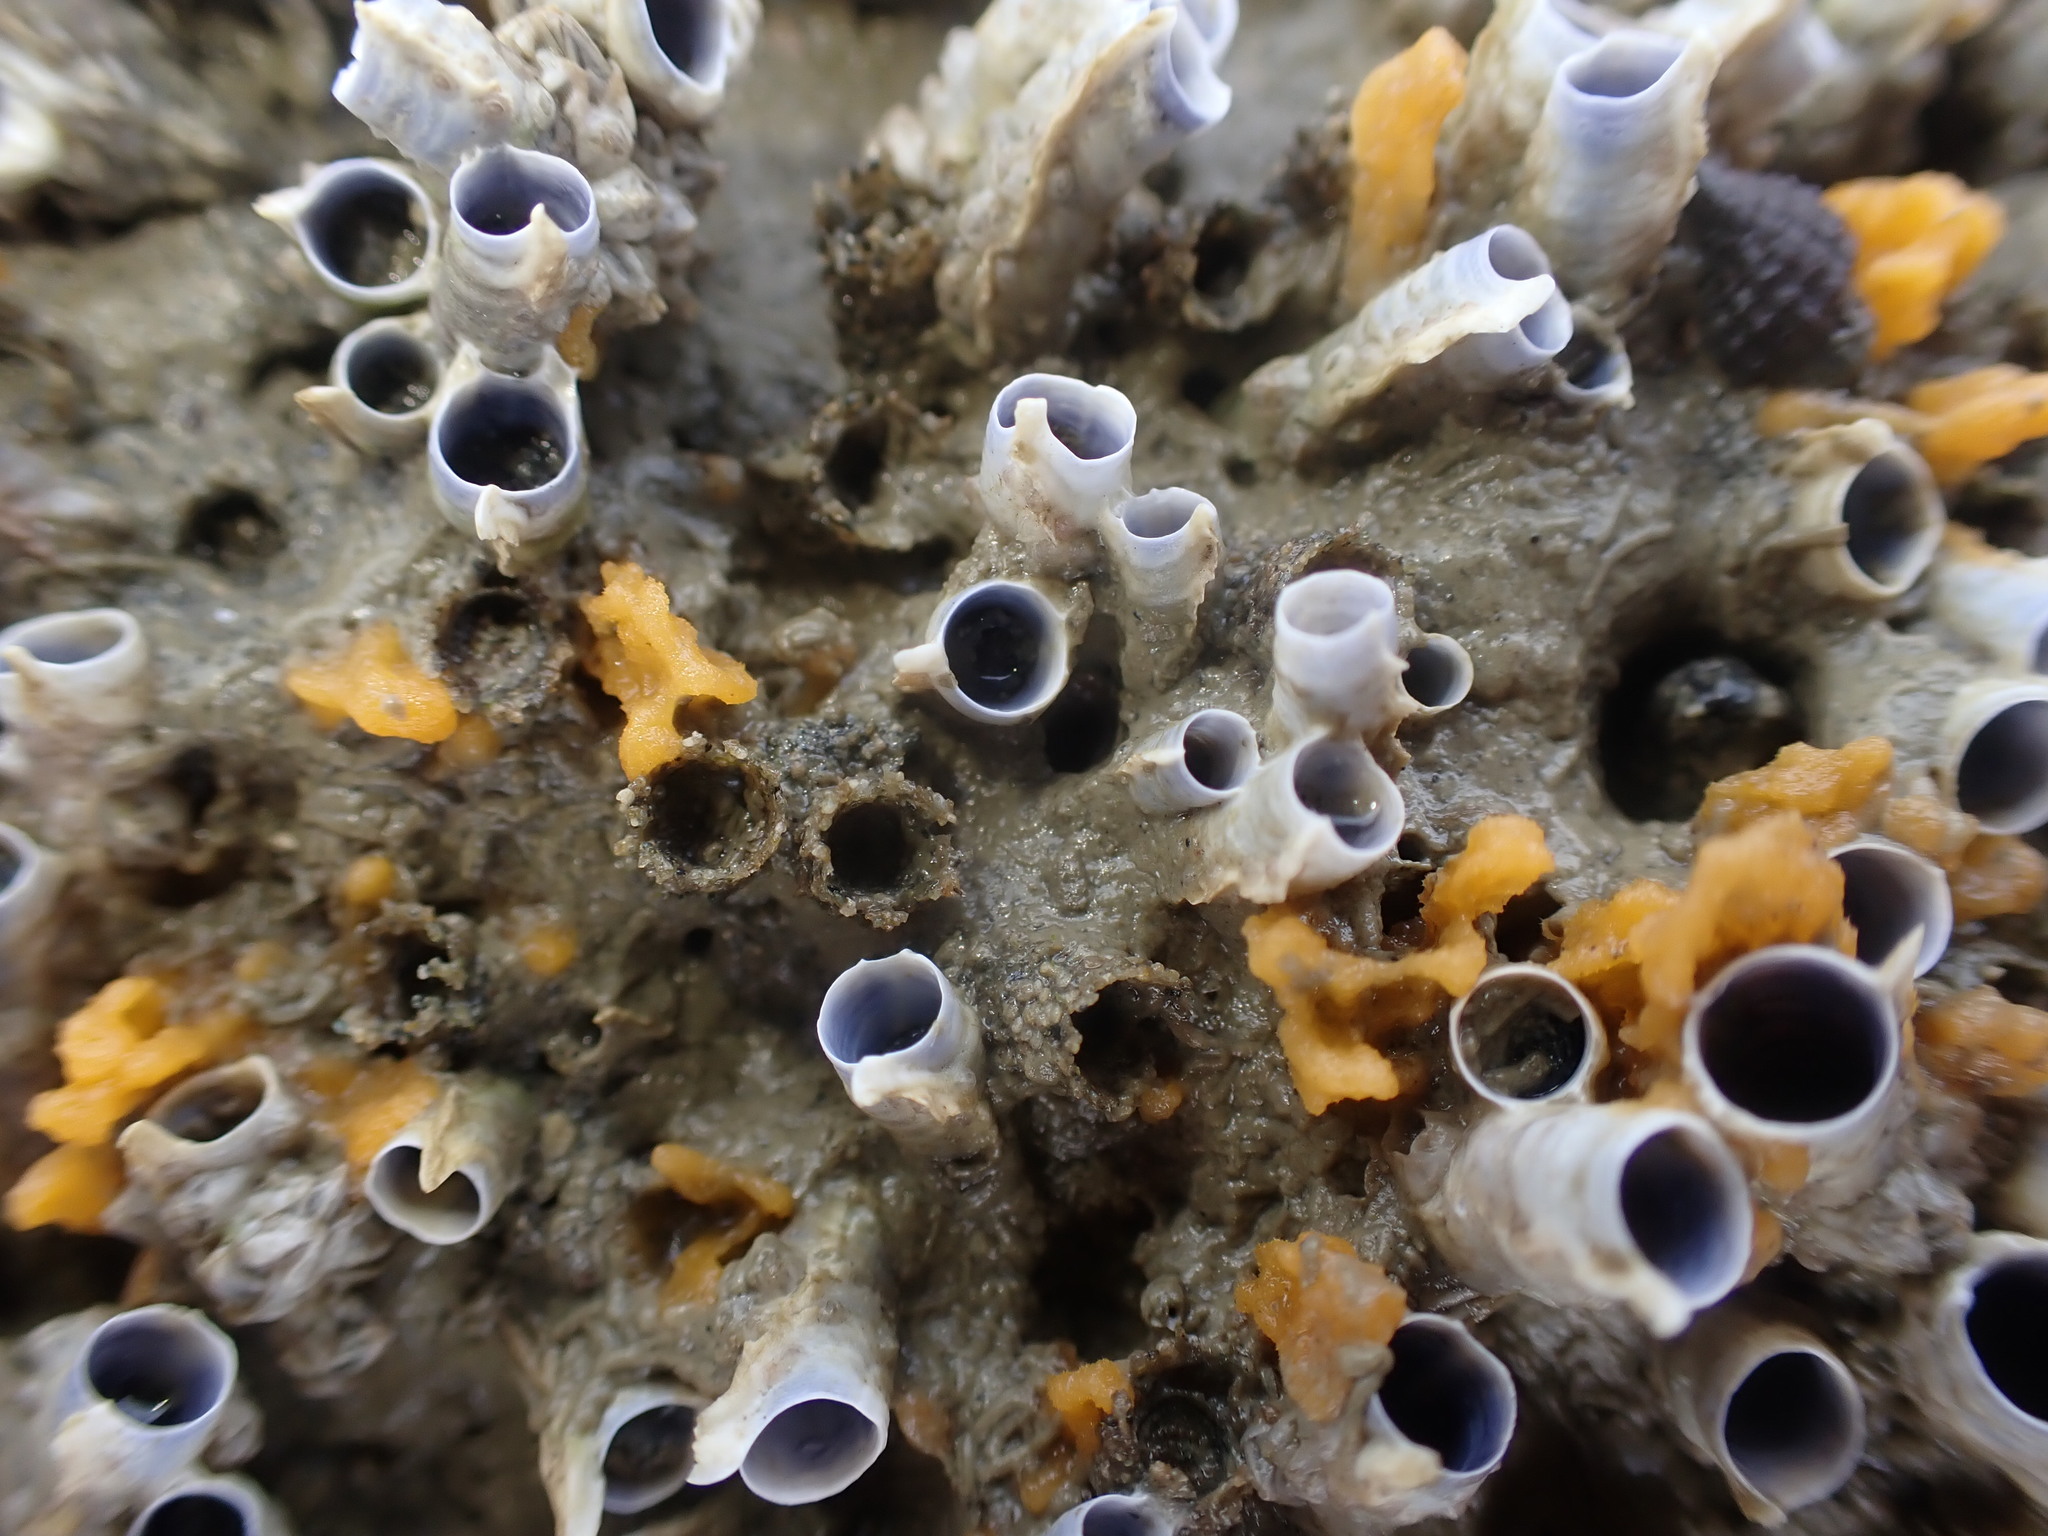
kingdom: Animalia
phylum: Annelida
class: Polychaeta
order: Sabellida
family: Serpulidae
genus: Spirobranchus
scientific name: Spirobranchus cariniferus
